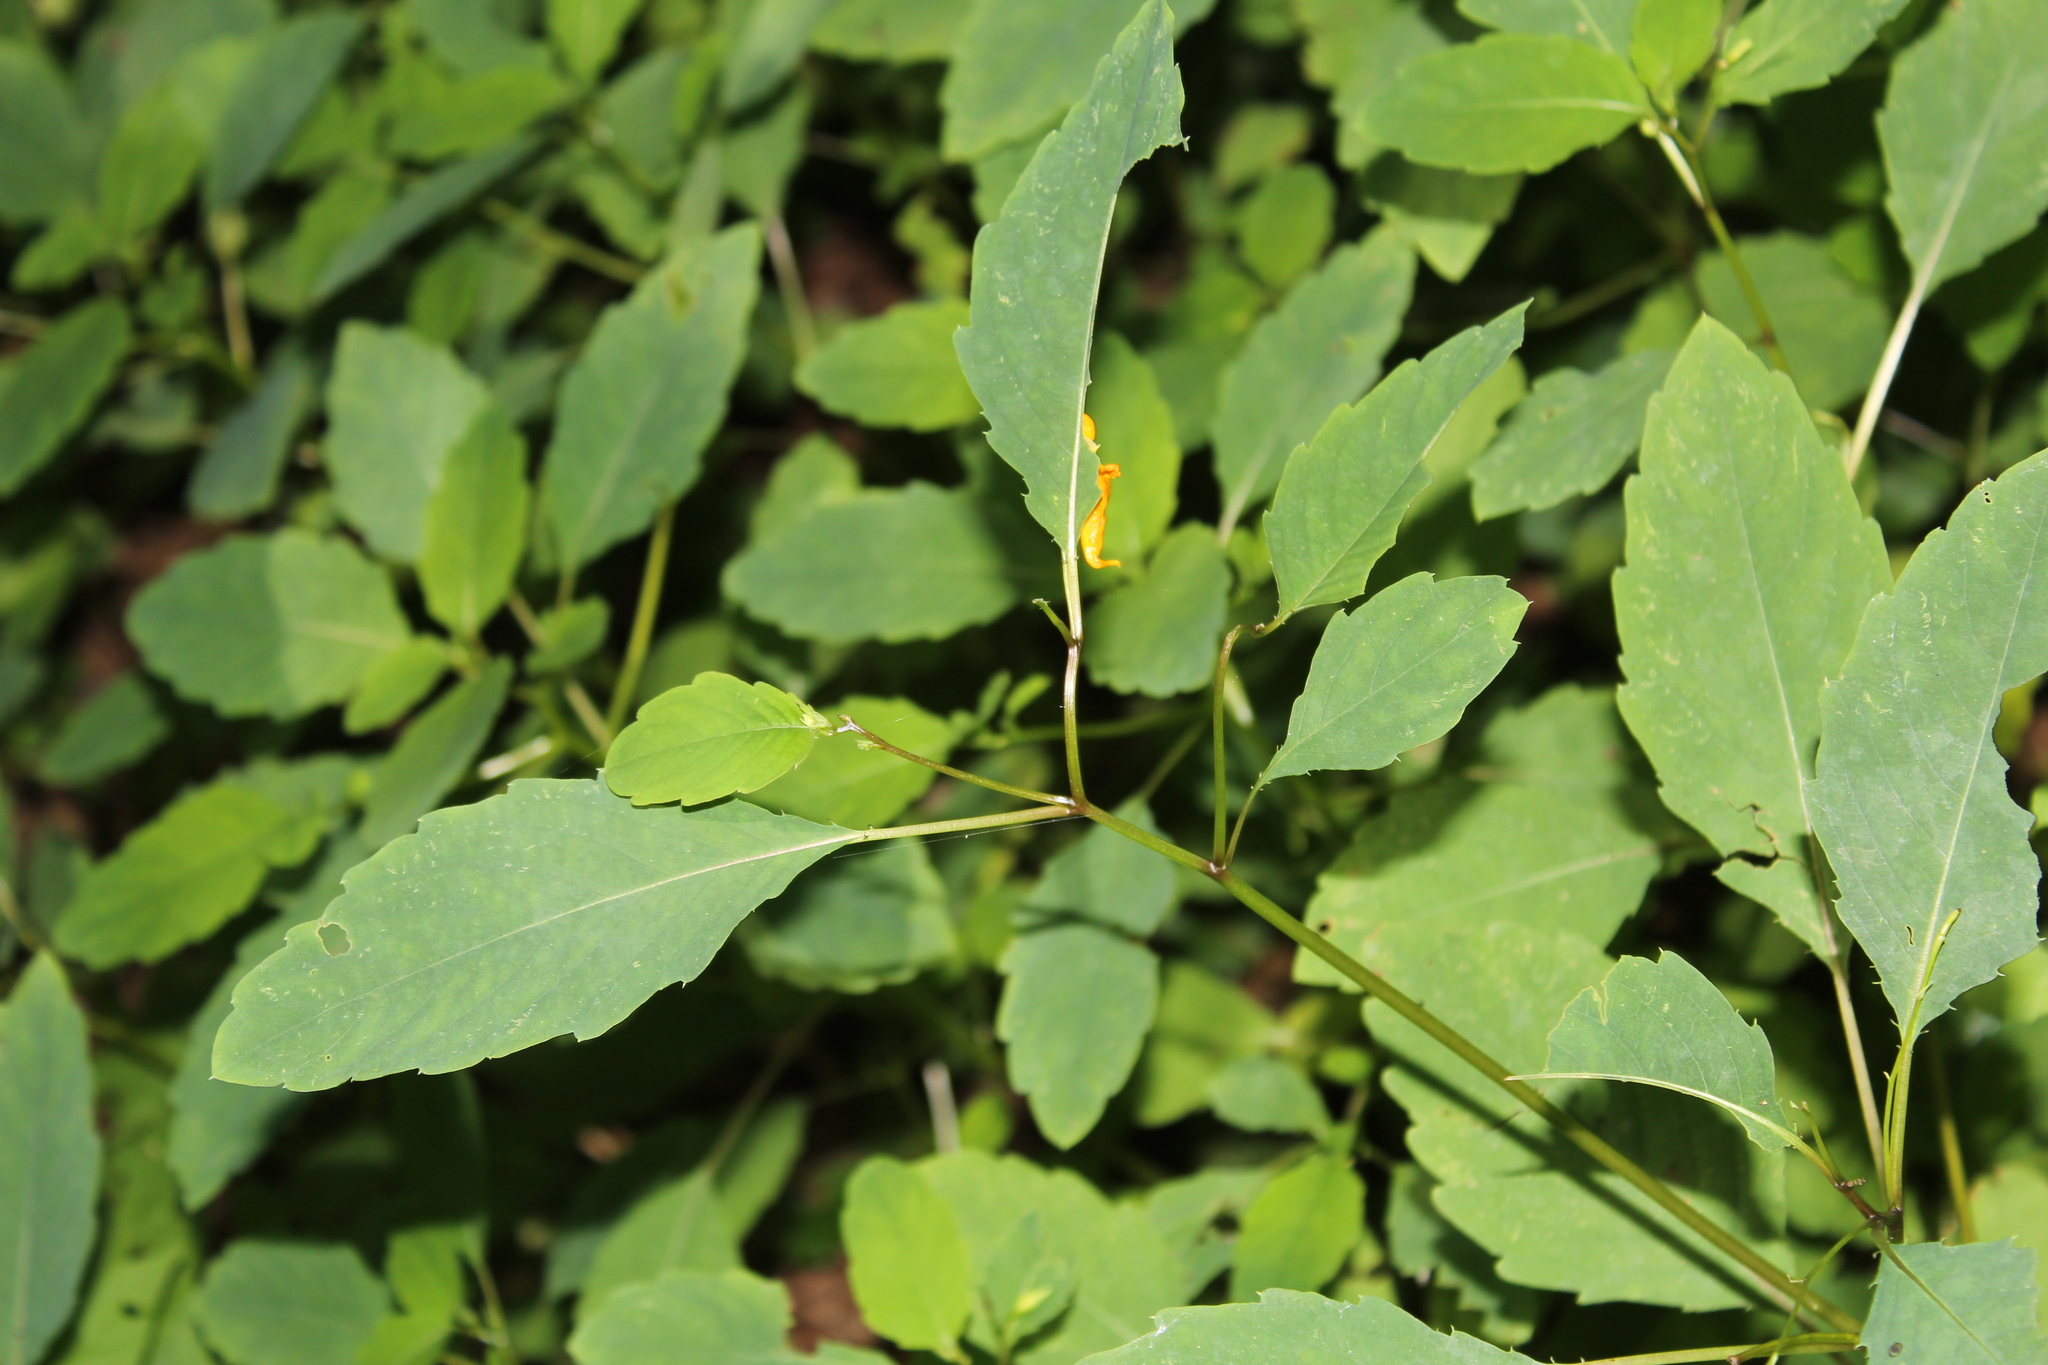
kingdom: Plantae
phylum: Tracheophyta
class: Magnoliopsida
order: Ericales
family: Balsaminaceae
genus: Impatiens
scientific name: Impatiens capensis
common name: Orange balsam
